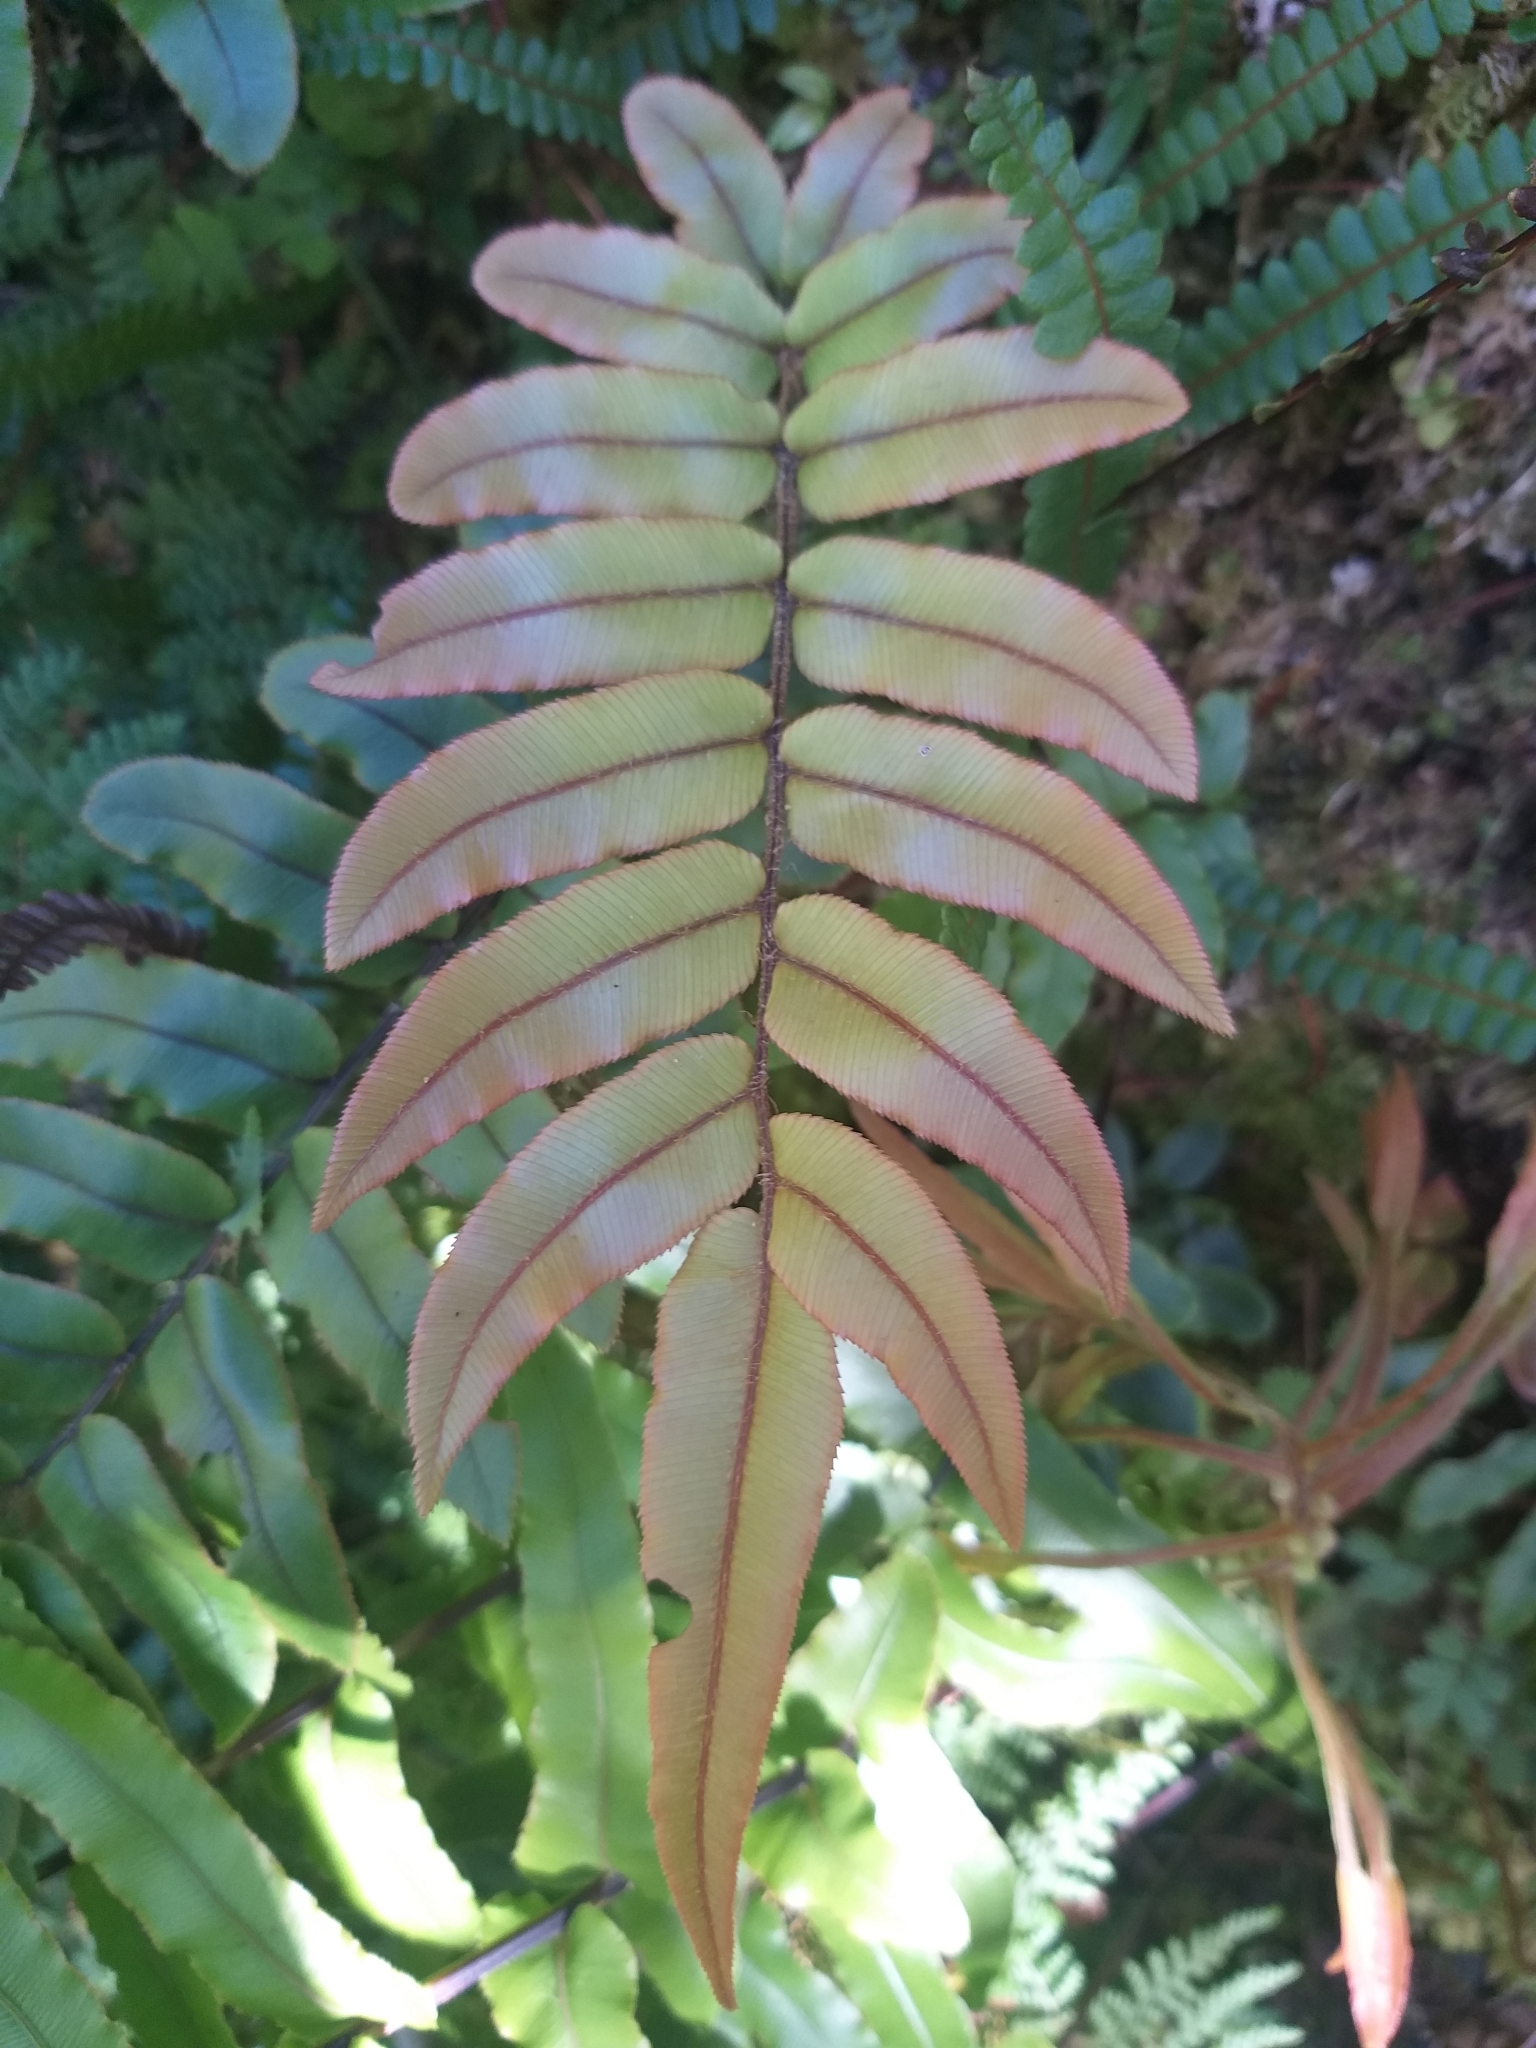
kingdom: Plantae
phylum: Tracheophyta
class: Polypodiopsida
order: Polypodiales
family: Blechnaceae
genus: Parablechnum
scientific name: Parablechnum procerum
